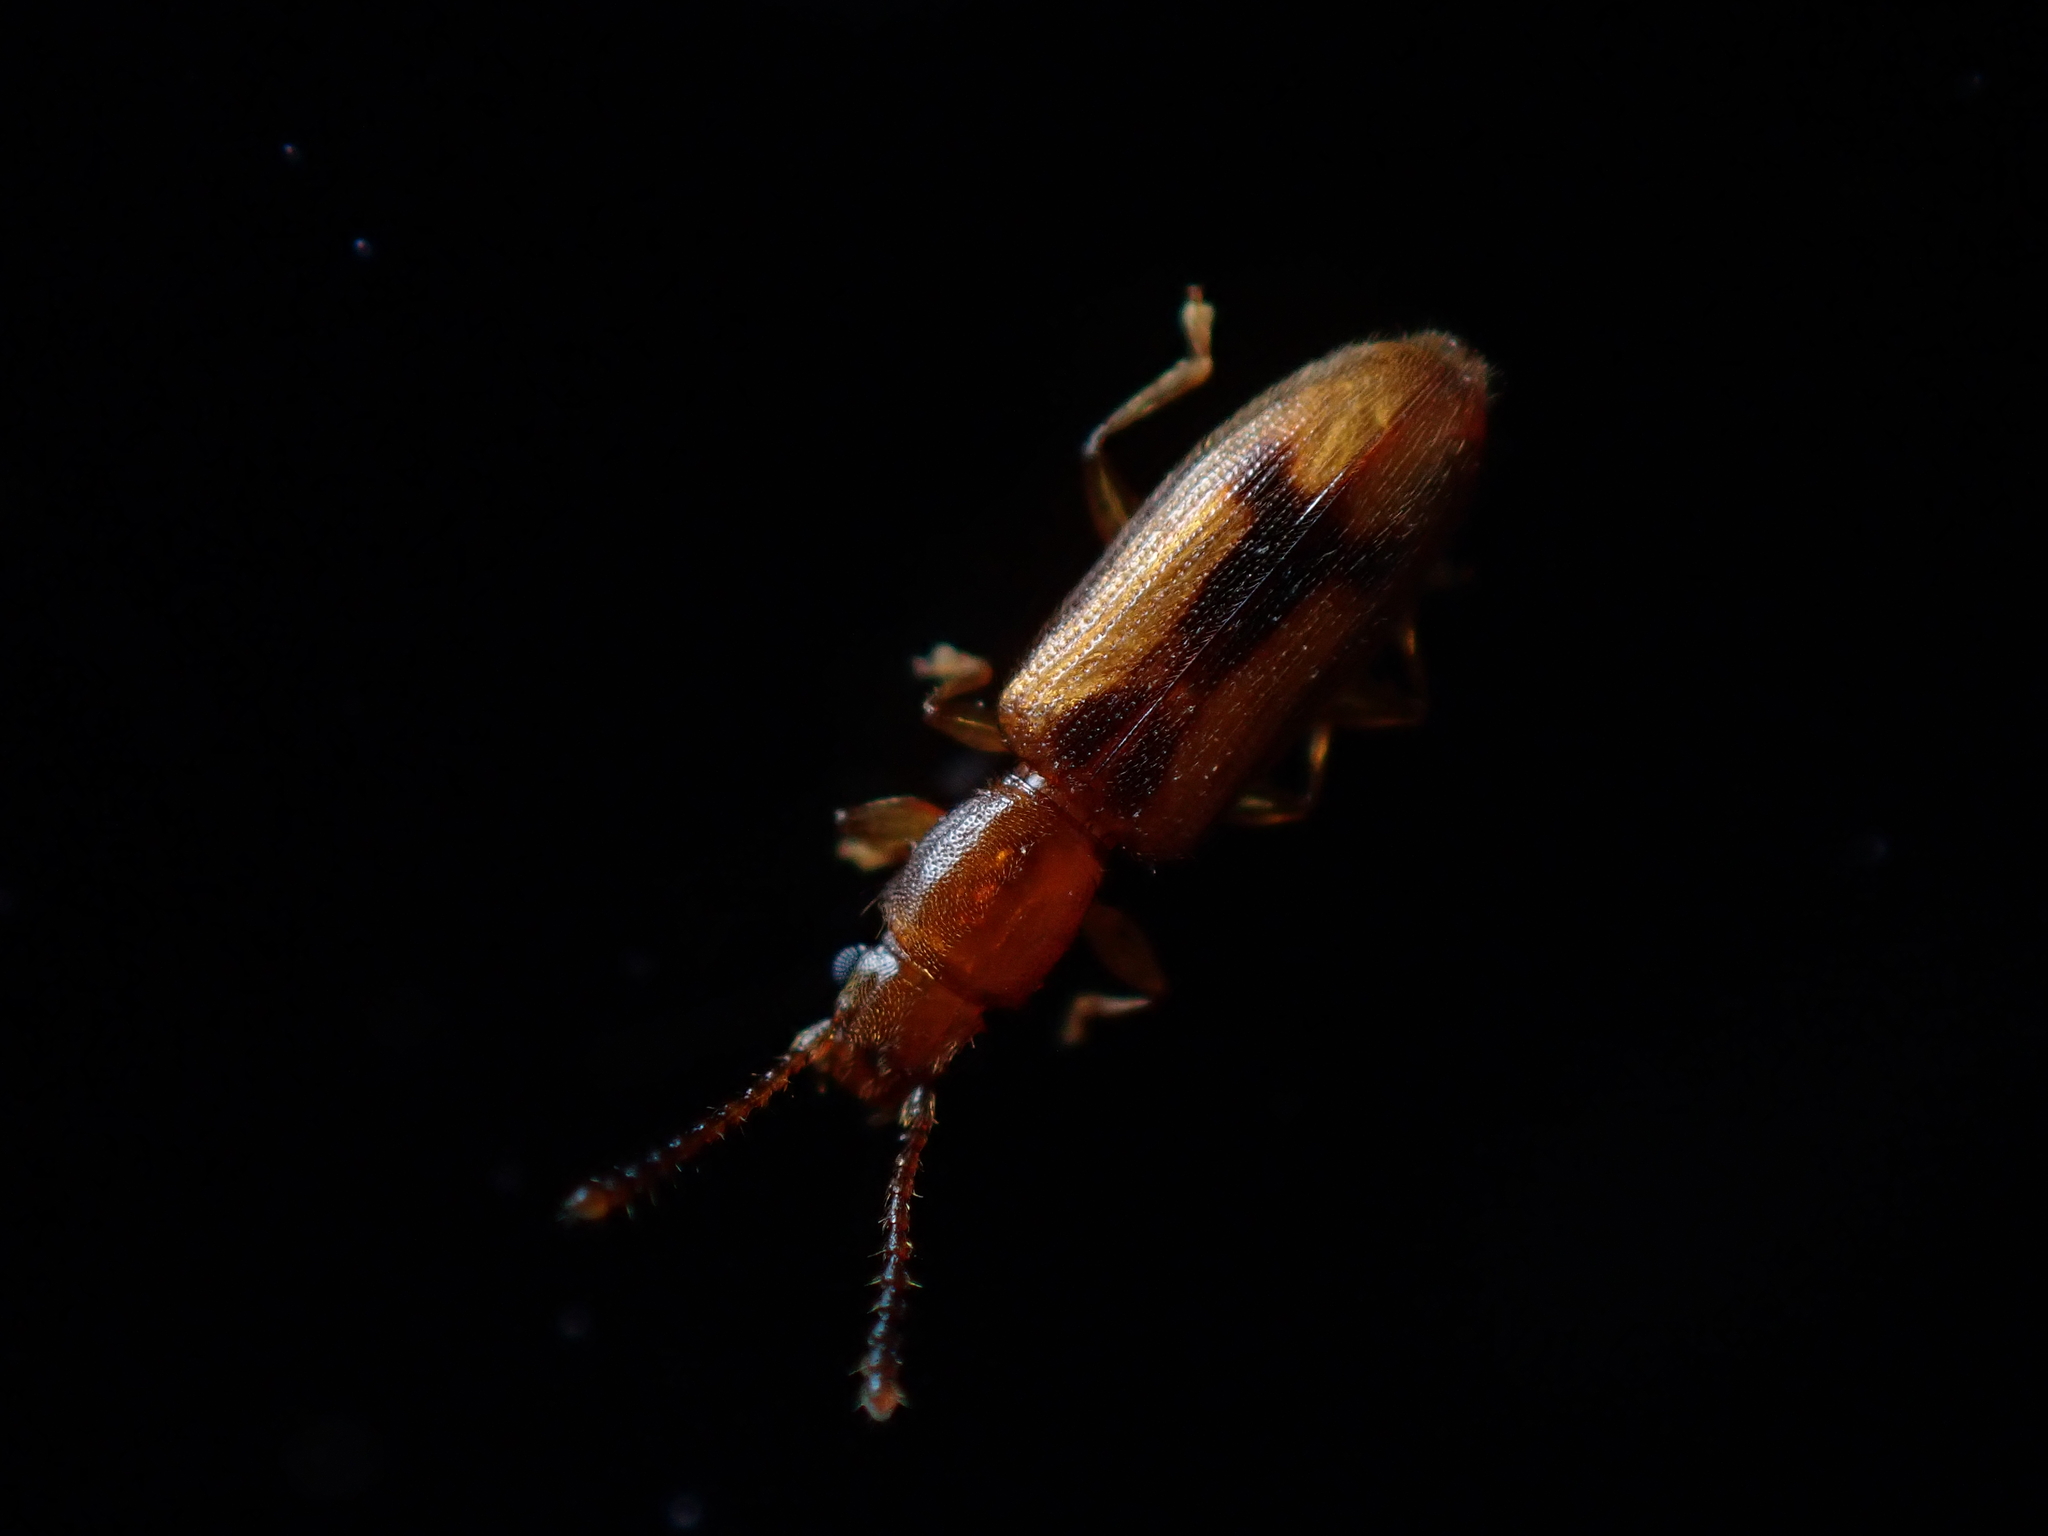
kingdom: Animalia
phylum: Arthropoda
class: Insecta
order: Coleoptera
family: Silvanidae
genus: Cryptamorpha
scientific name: Cryptamorpha desjardinsi
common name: Cryptamorpha
